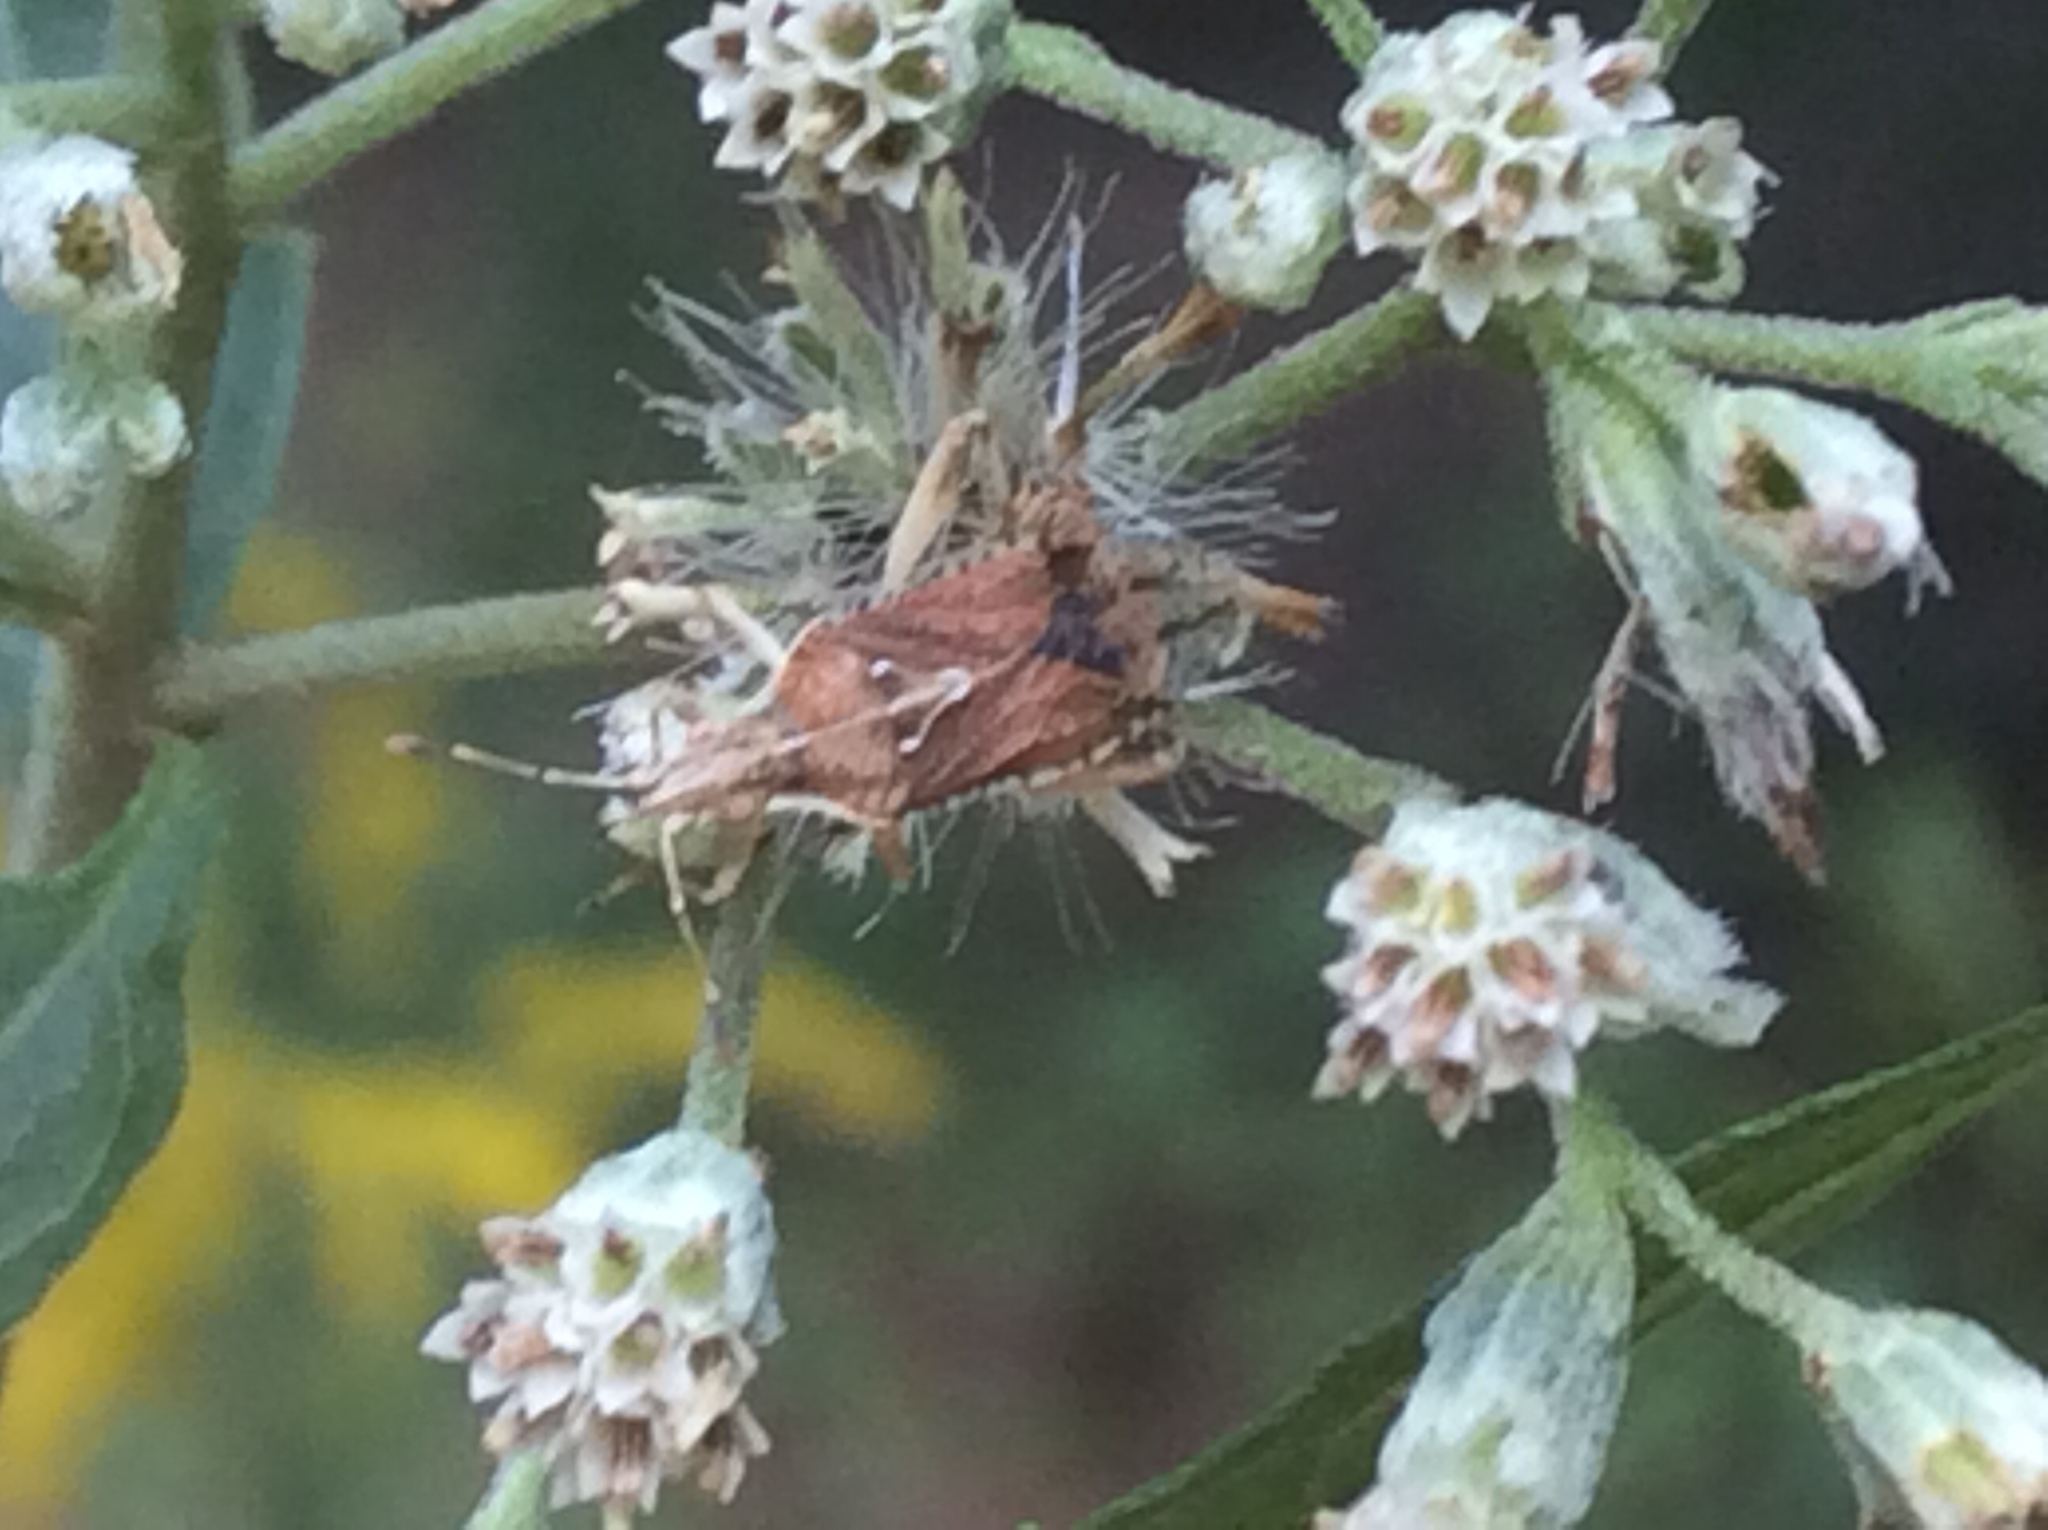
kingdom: Animalia
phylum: Arthropoda
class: Insecta
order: Hemiptera
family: Rhopalidae
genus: Harmostes
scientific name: Harmostes fraterculus
